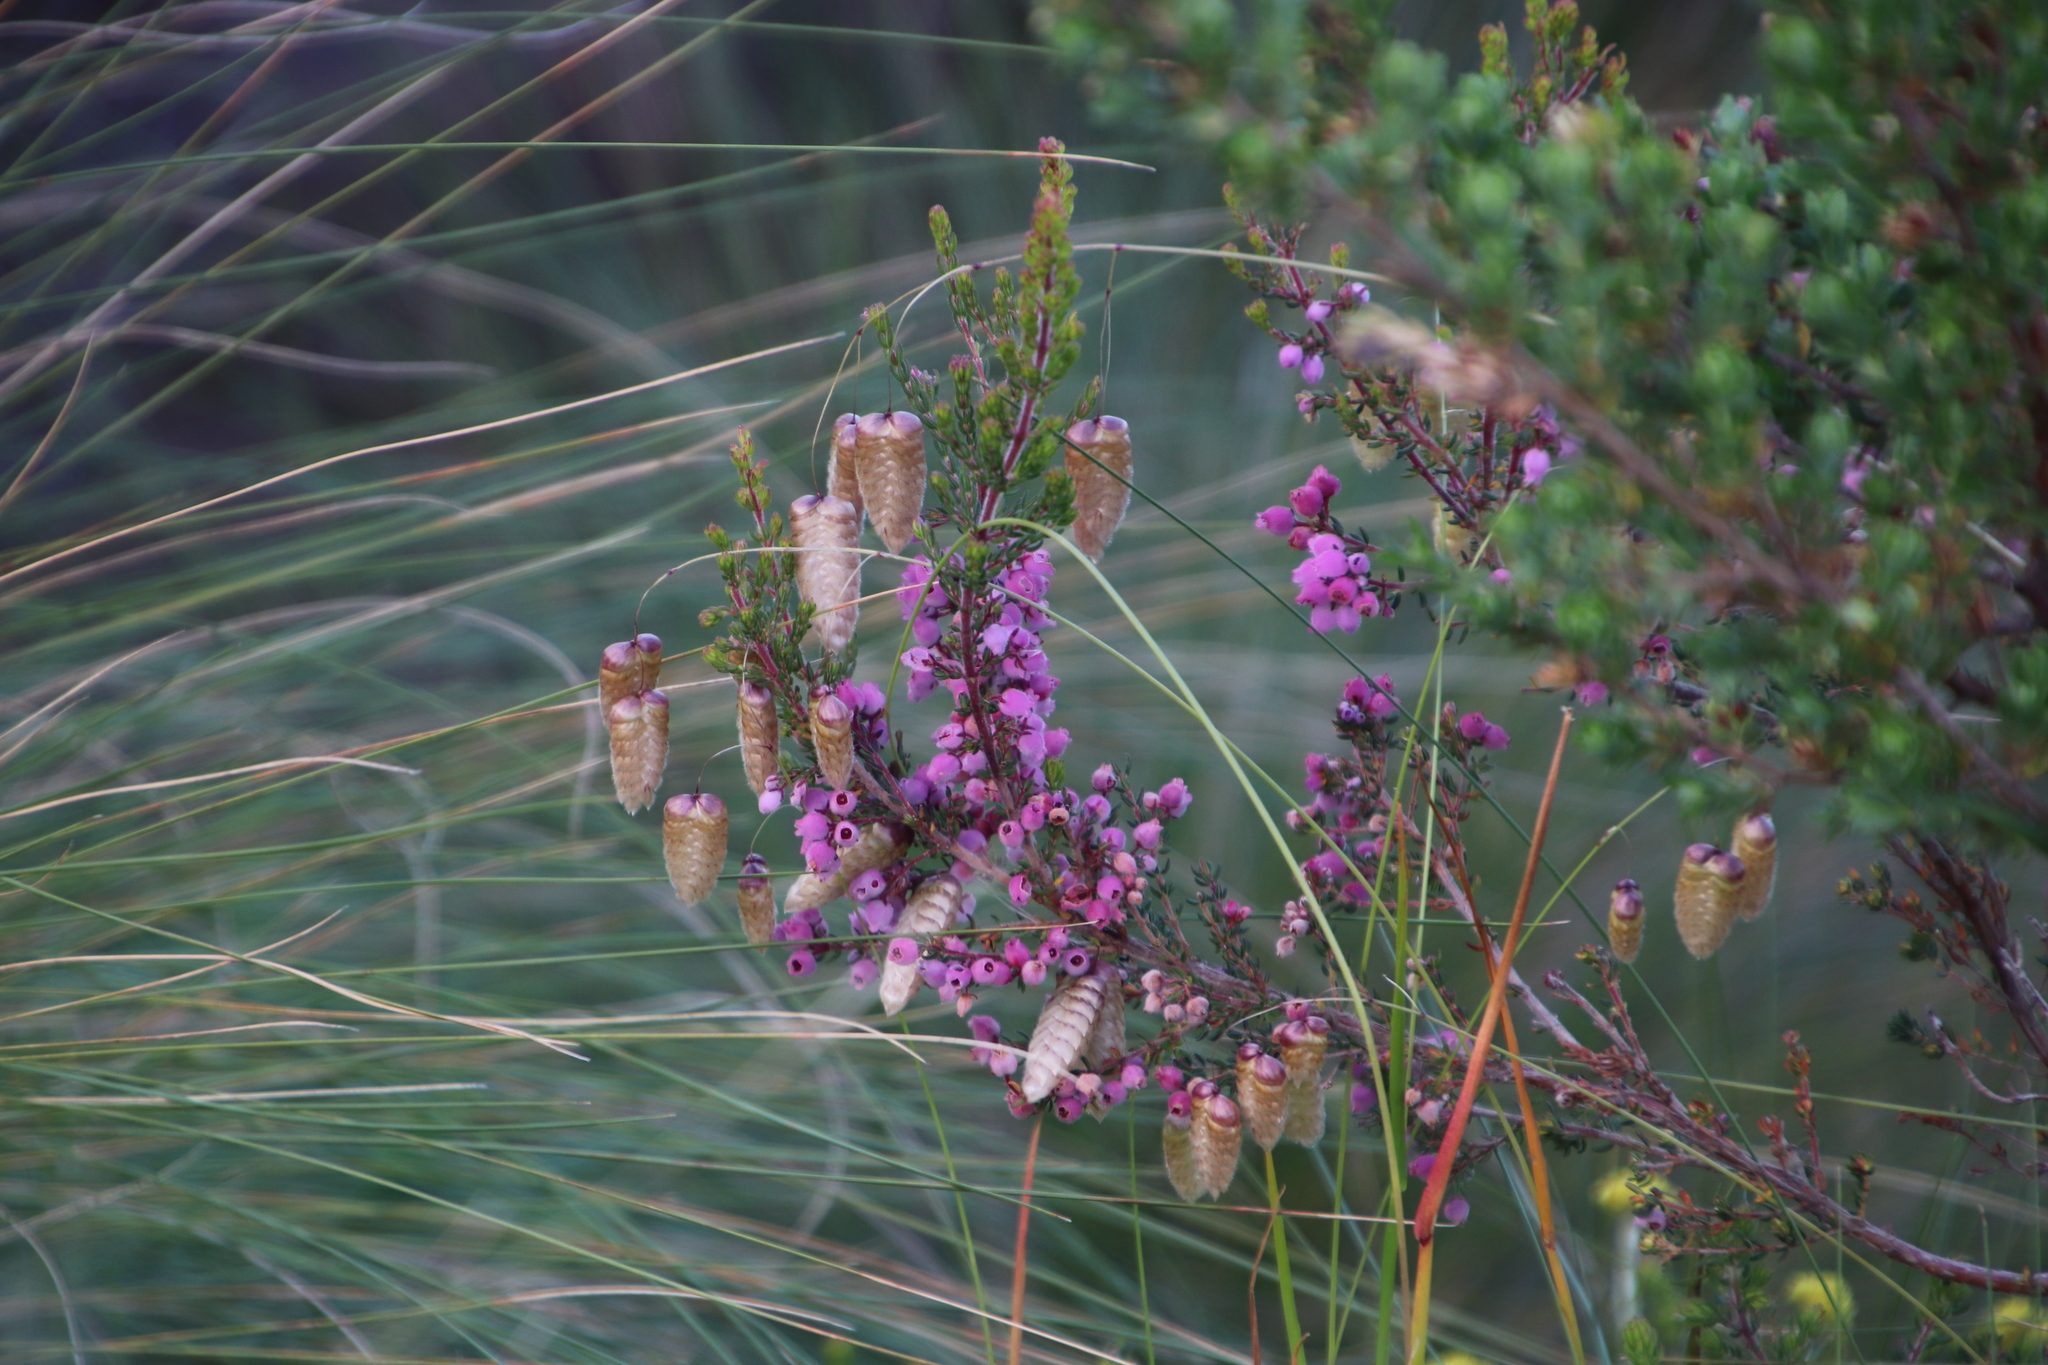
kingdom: Plantae
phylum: Tracheophyta
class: Magnoliopsida
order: Ericales
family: Ericaceae
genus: Erica
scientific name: Erica hirtiflora
